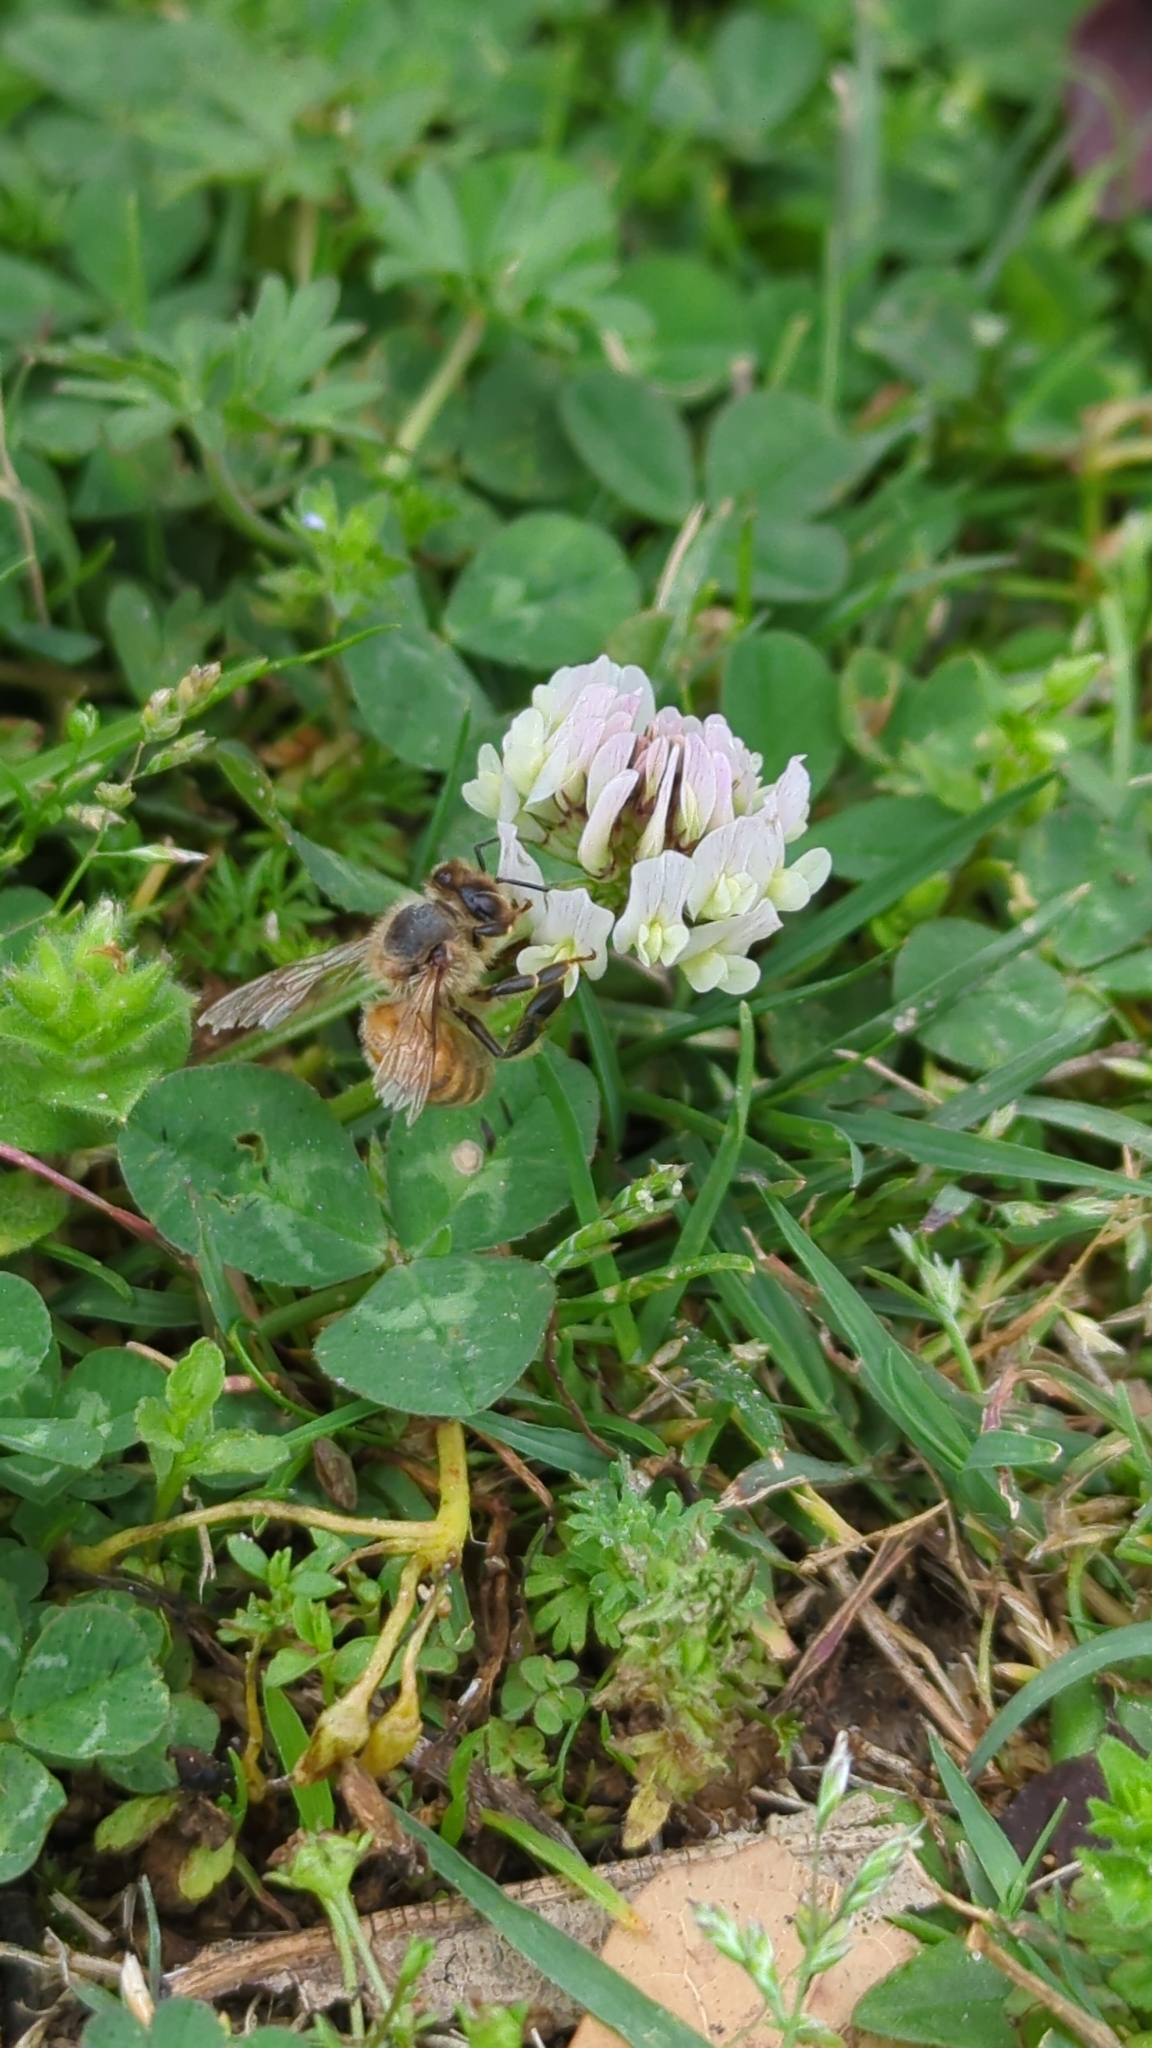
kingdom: Animalia
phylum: Arthropoda
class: Insecta
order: Hymenoptera
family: Apidae
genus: Apis
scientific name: Apis mellifera
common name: Honey bee
